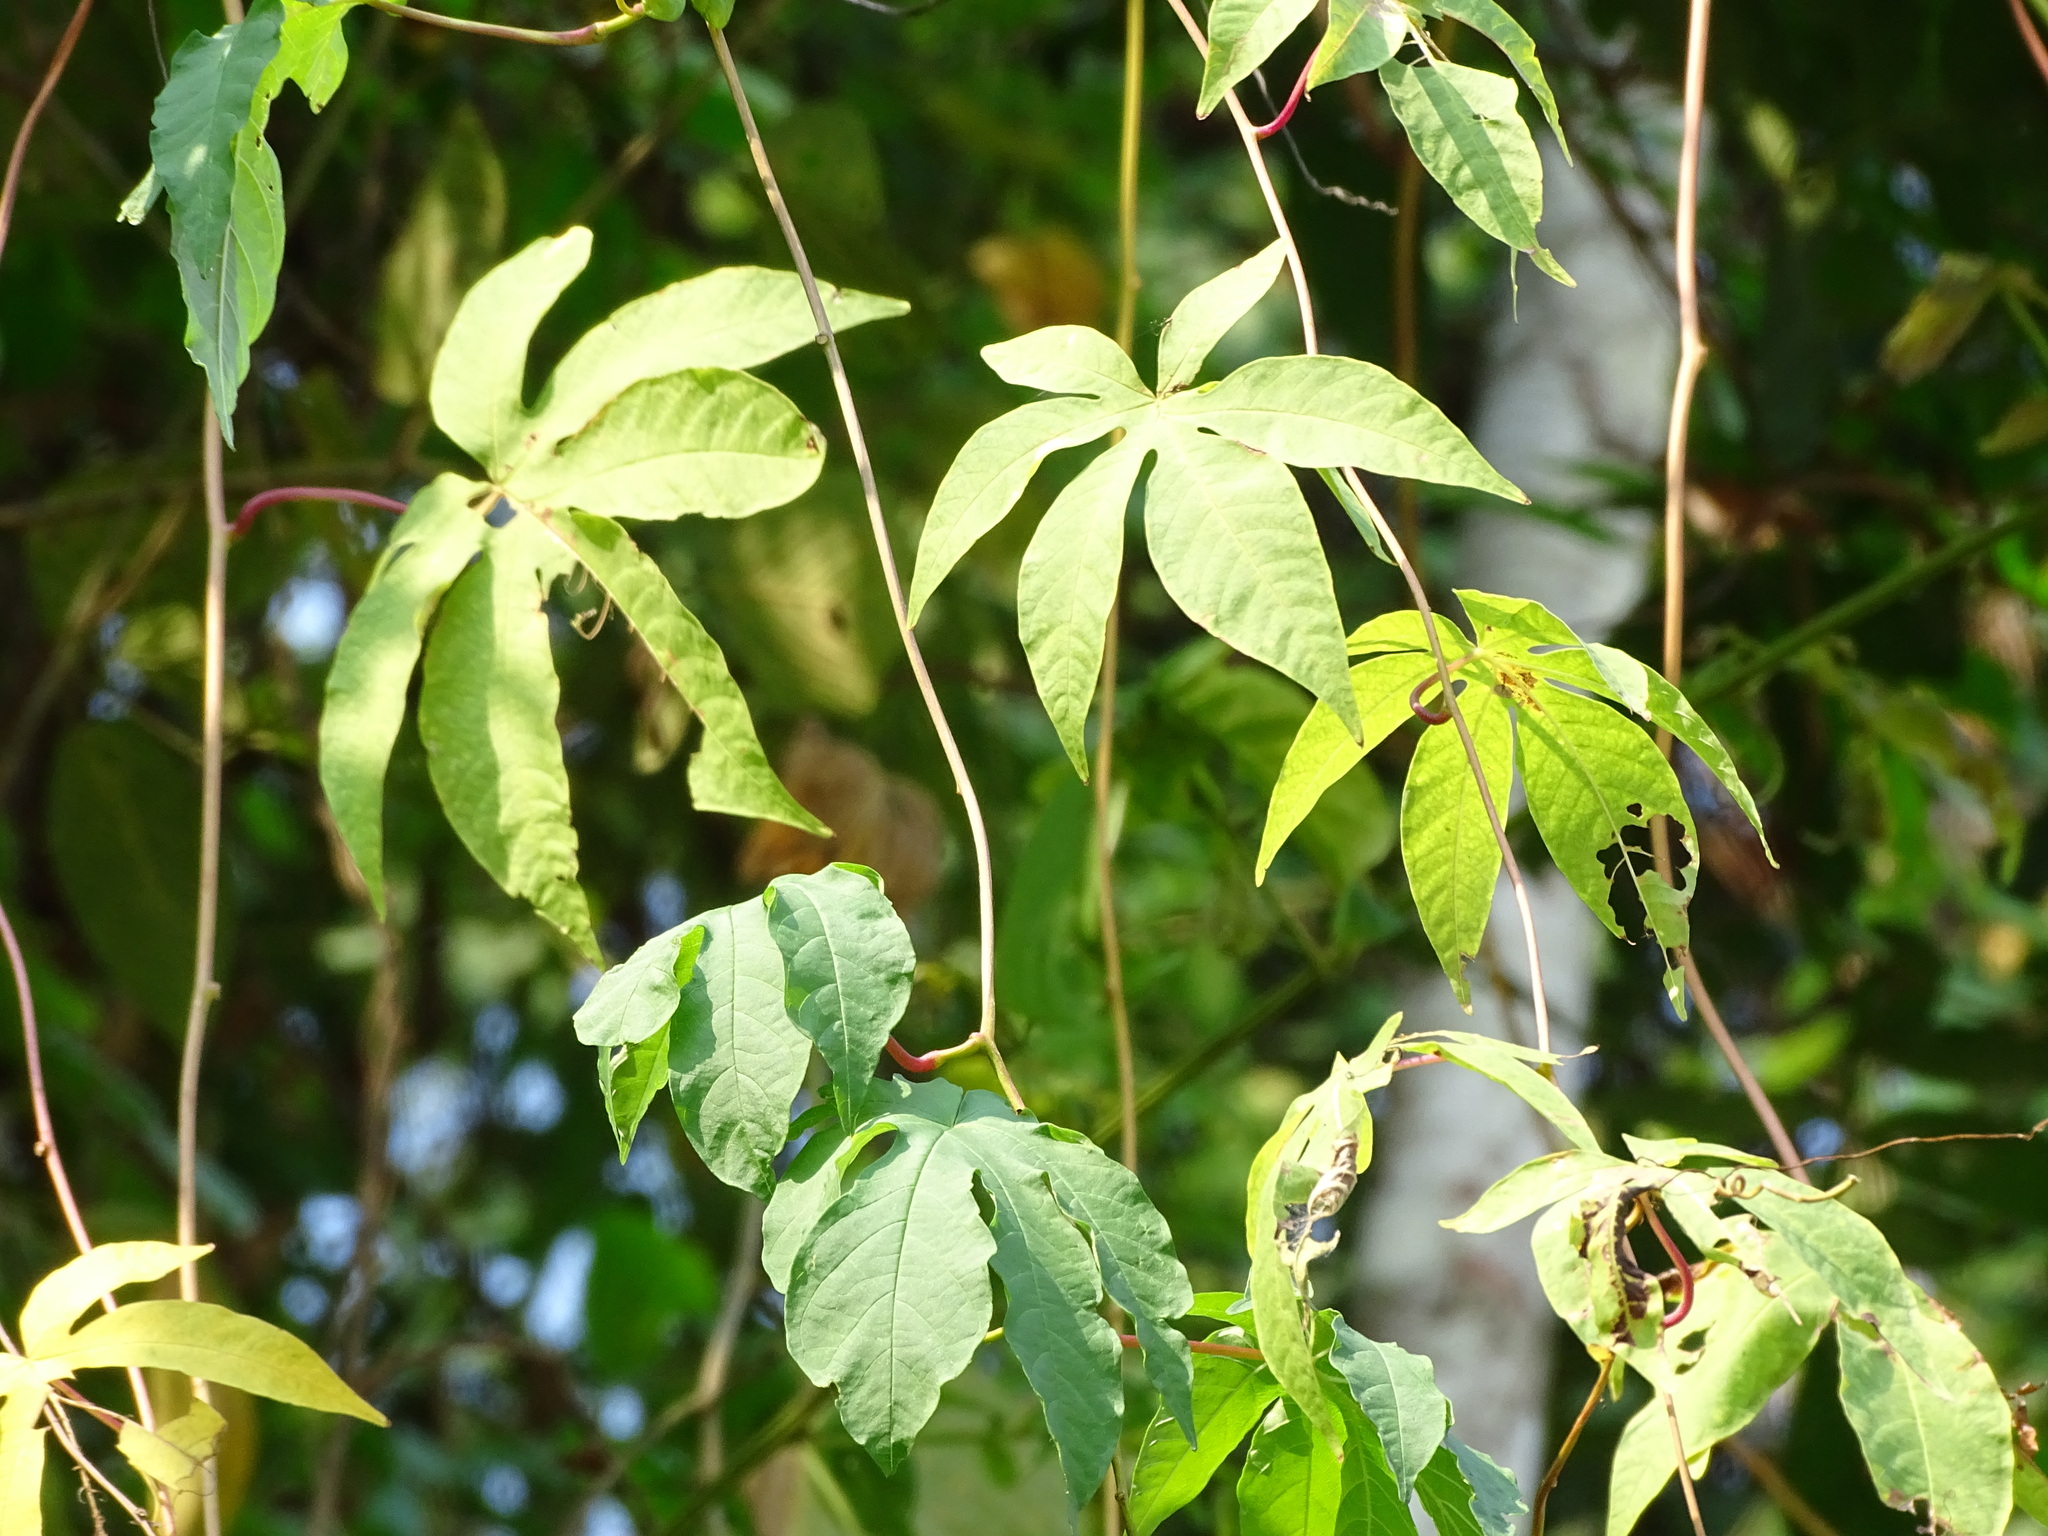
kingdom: Plantae
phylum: Tracheophyta
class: Magnoliopsida
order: Solanales
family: Convolvulaceae
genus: Distimake
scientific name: Distimake tuberosus
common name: Spanish arborvine
